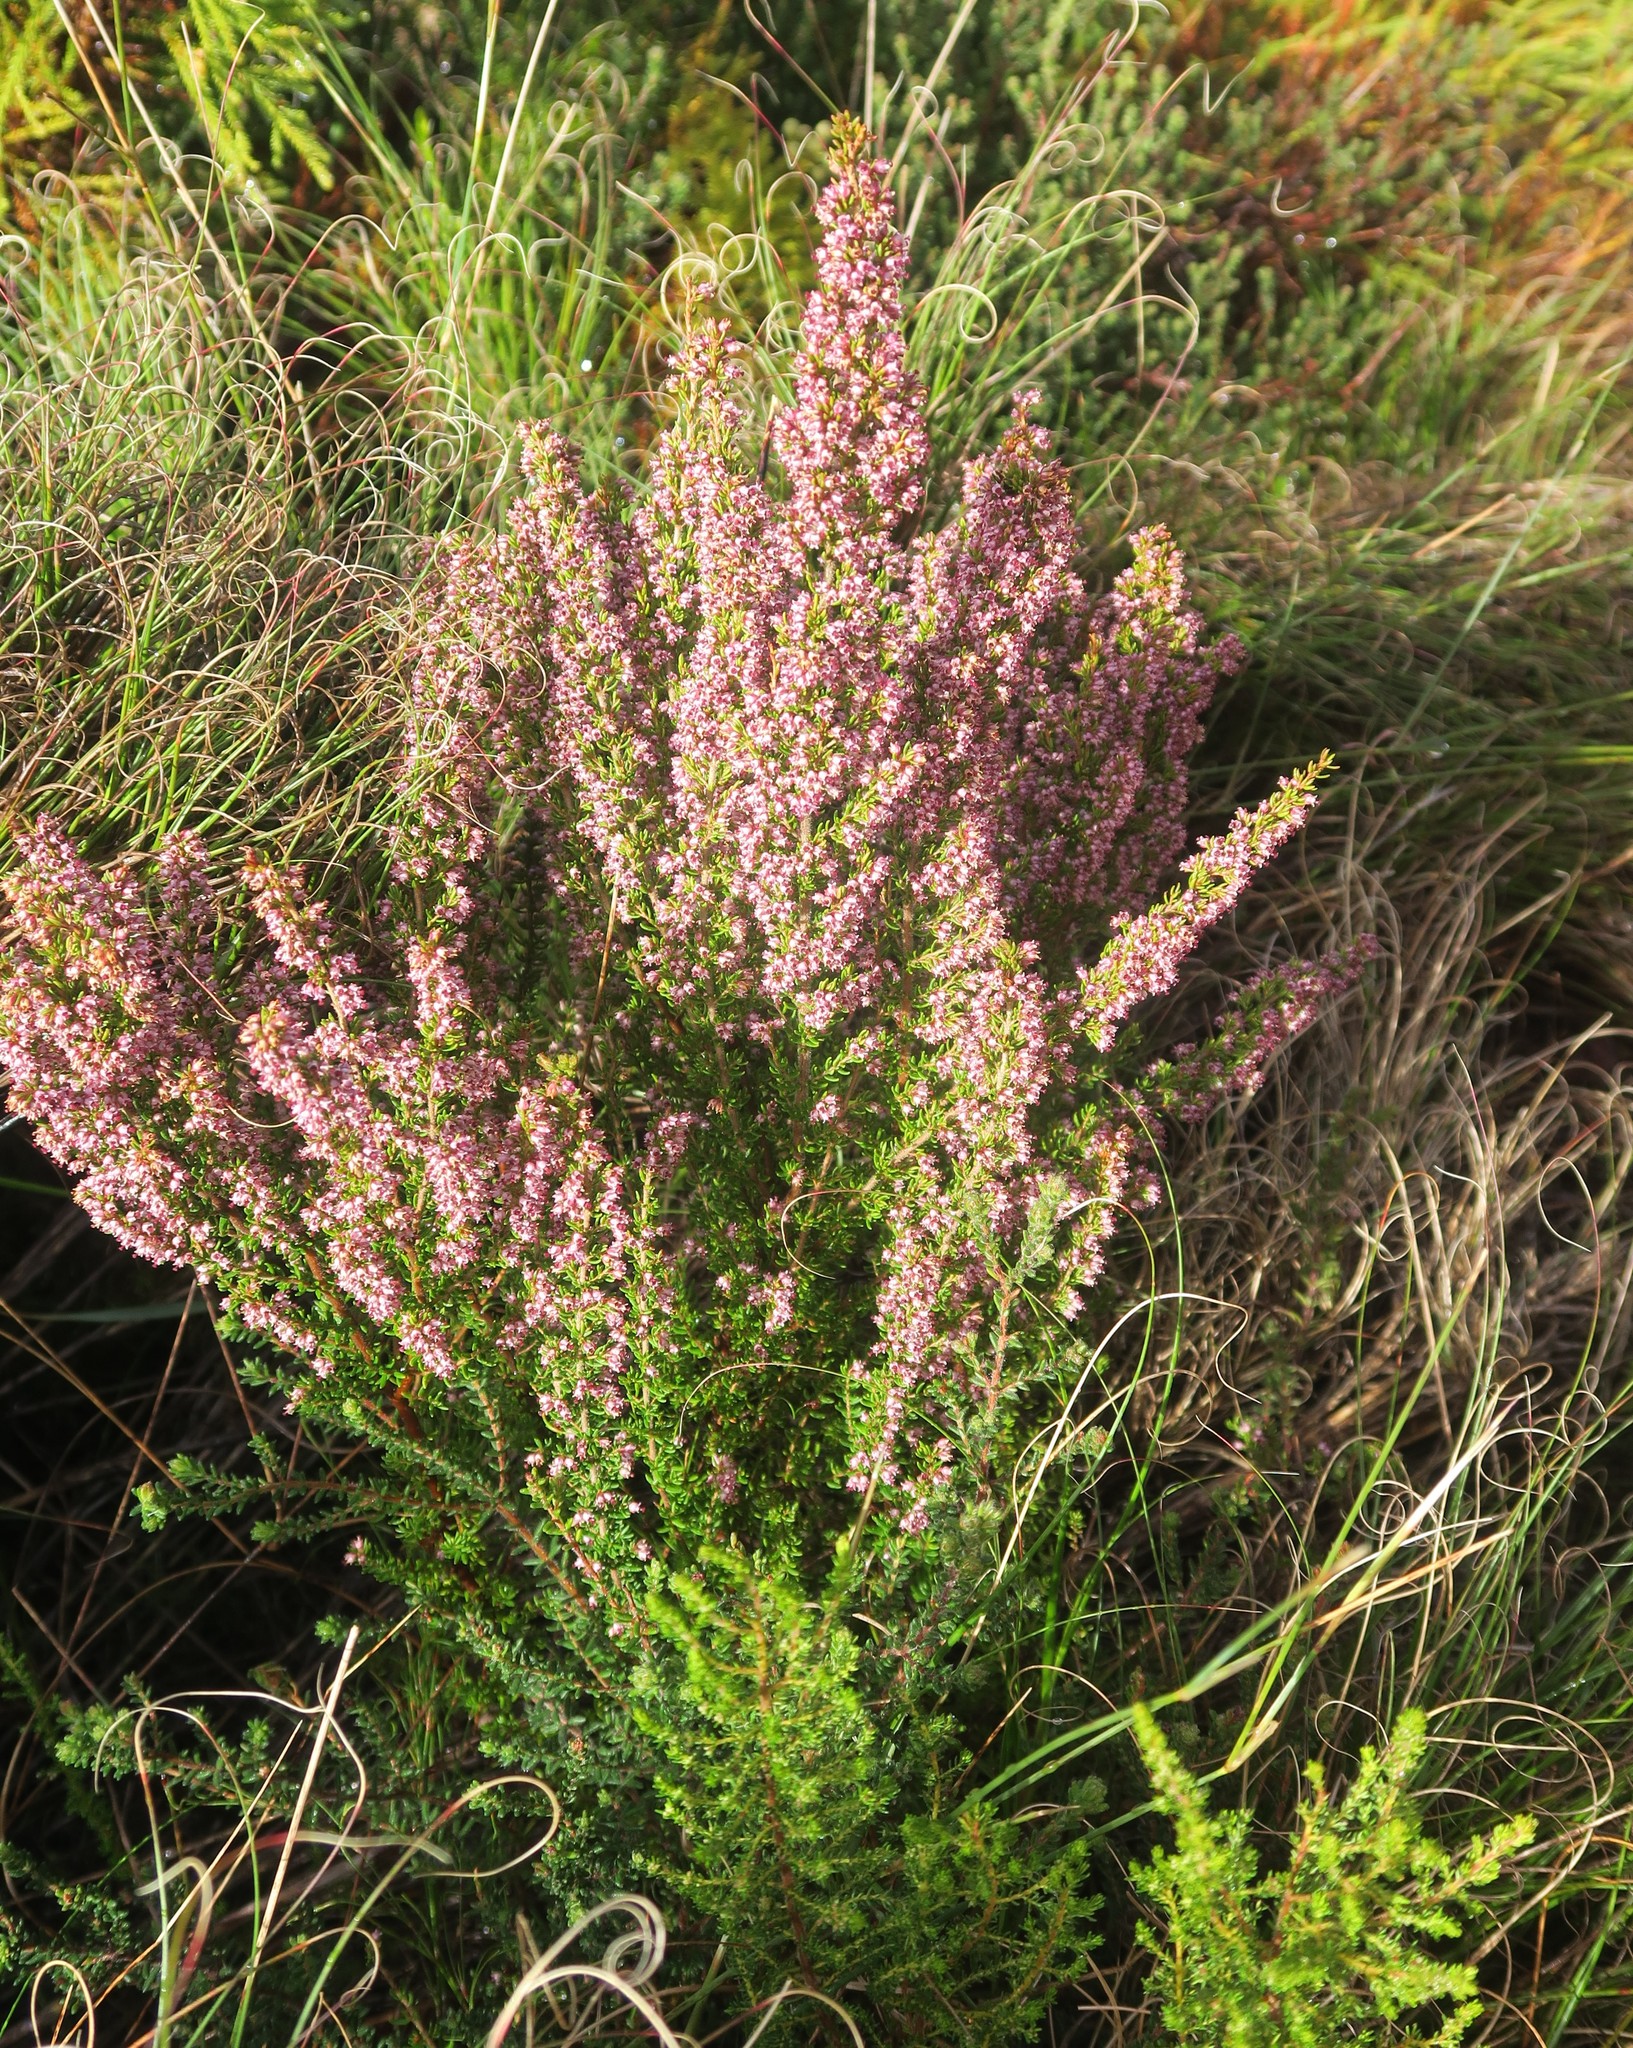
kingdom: Plantae
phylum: Tracheophyta
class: Magnoliopsida
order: Ericales
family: Ericaceae
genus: Erica
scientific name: Erica hispidula
